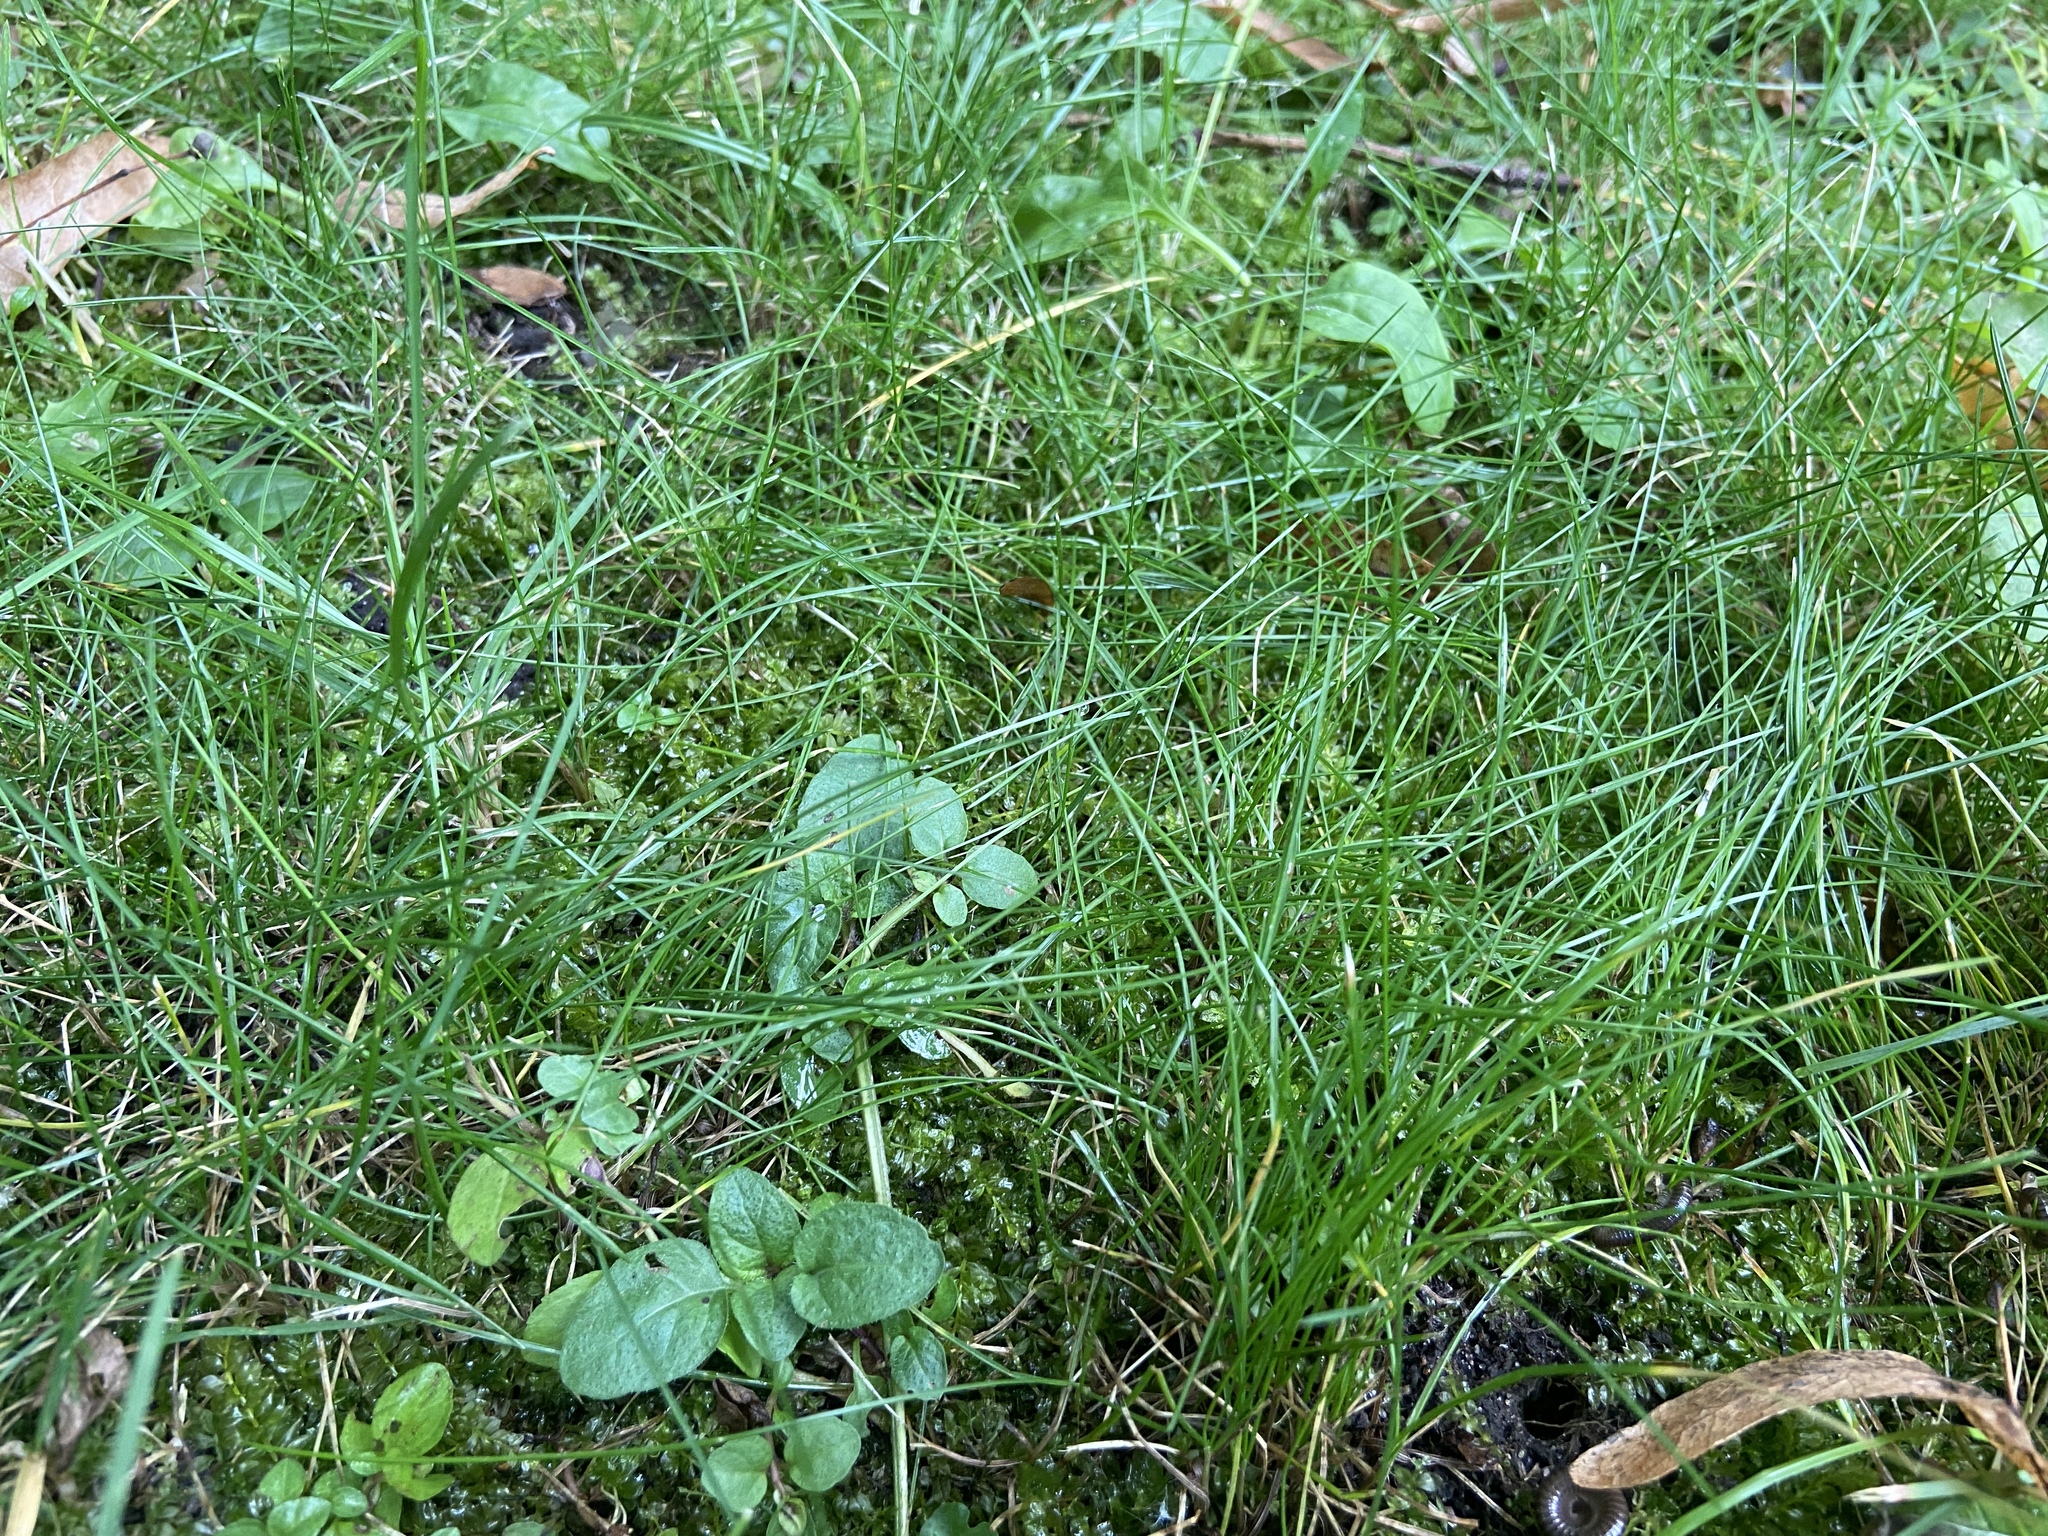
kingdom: Plantae
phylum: Tracheophyta
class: Magnoliopsida
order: Lamiales
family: Lamiaceae
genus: Prunella
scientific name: Prunella vulgaris
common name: Heal-all
